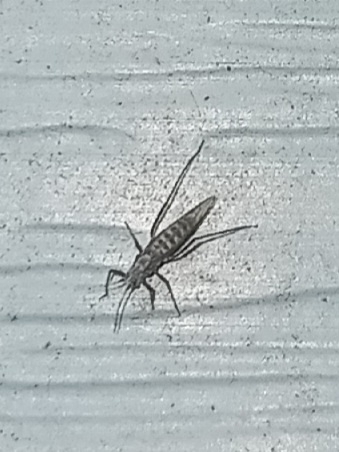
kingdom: Animalia
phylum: Arthropoda
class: Insecta
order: Hemiptera
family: Aphididae
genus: Eulachnus
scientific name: Eulachnus rileyi
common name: Active gray pine needle aphid
